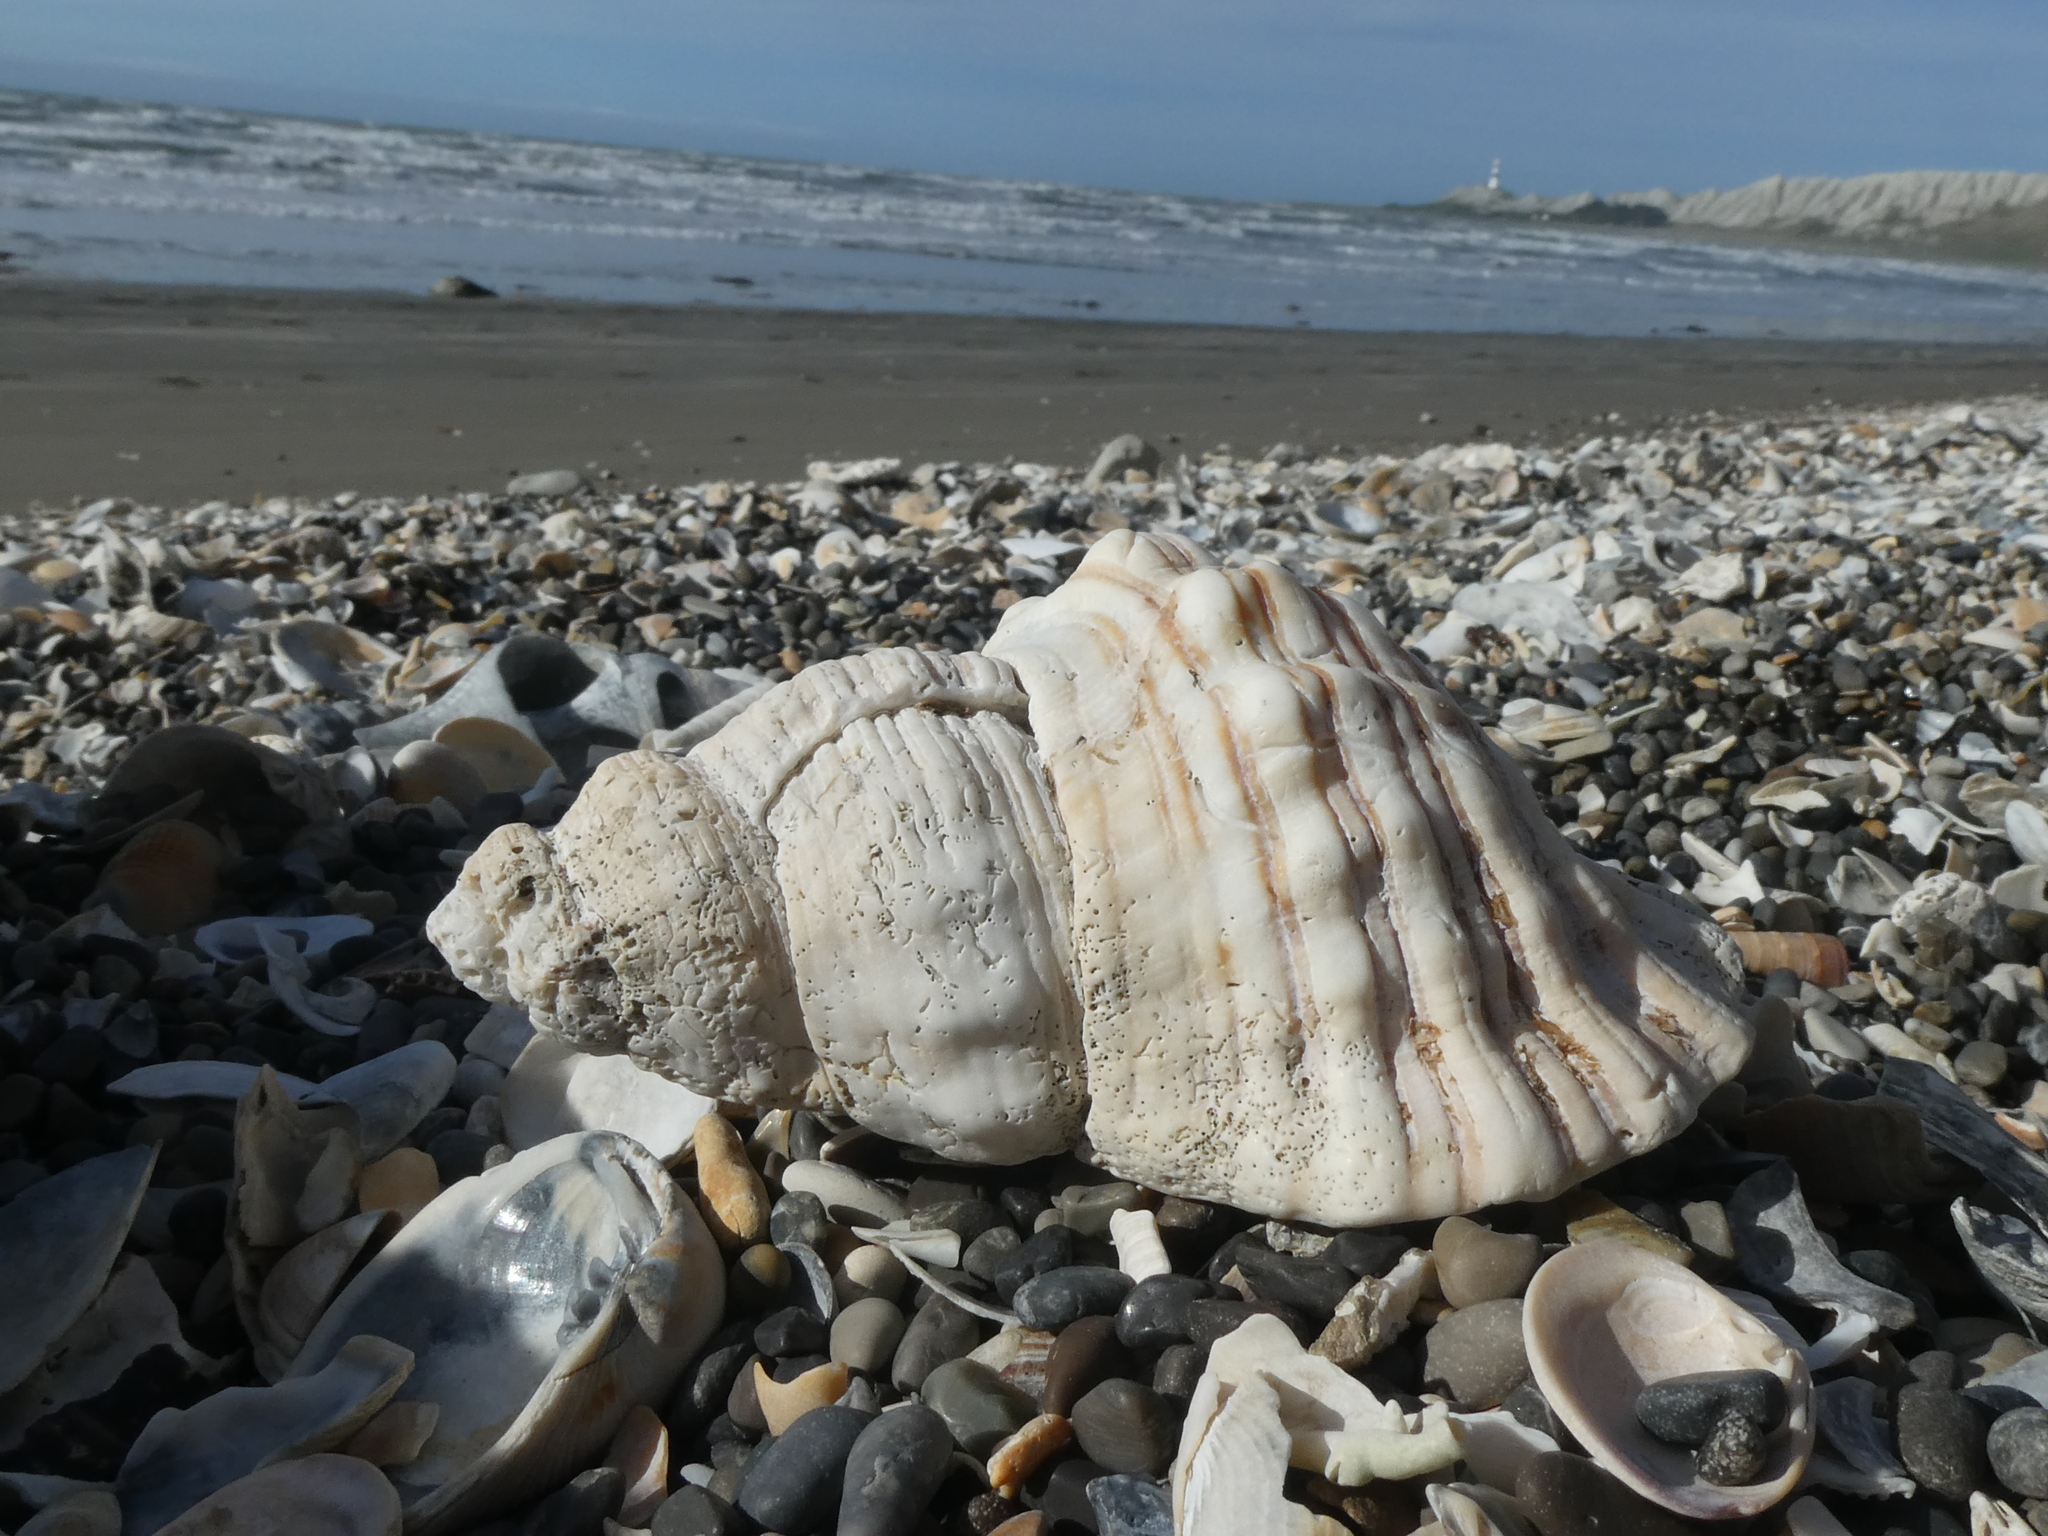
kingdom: Animalia
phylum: Mollusca
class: Gastropoda
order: Littorinimorpha
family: Cymatiidae
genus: Cabestana
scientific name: Cabestana spengleri
